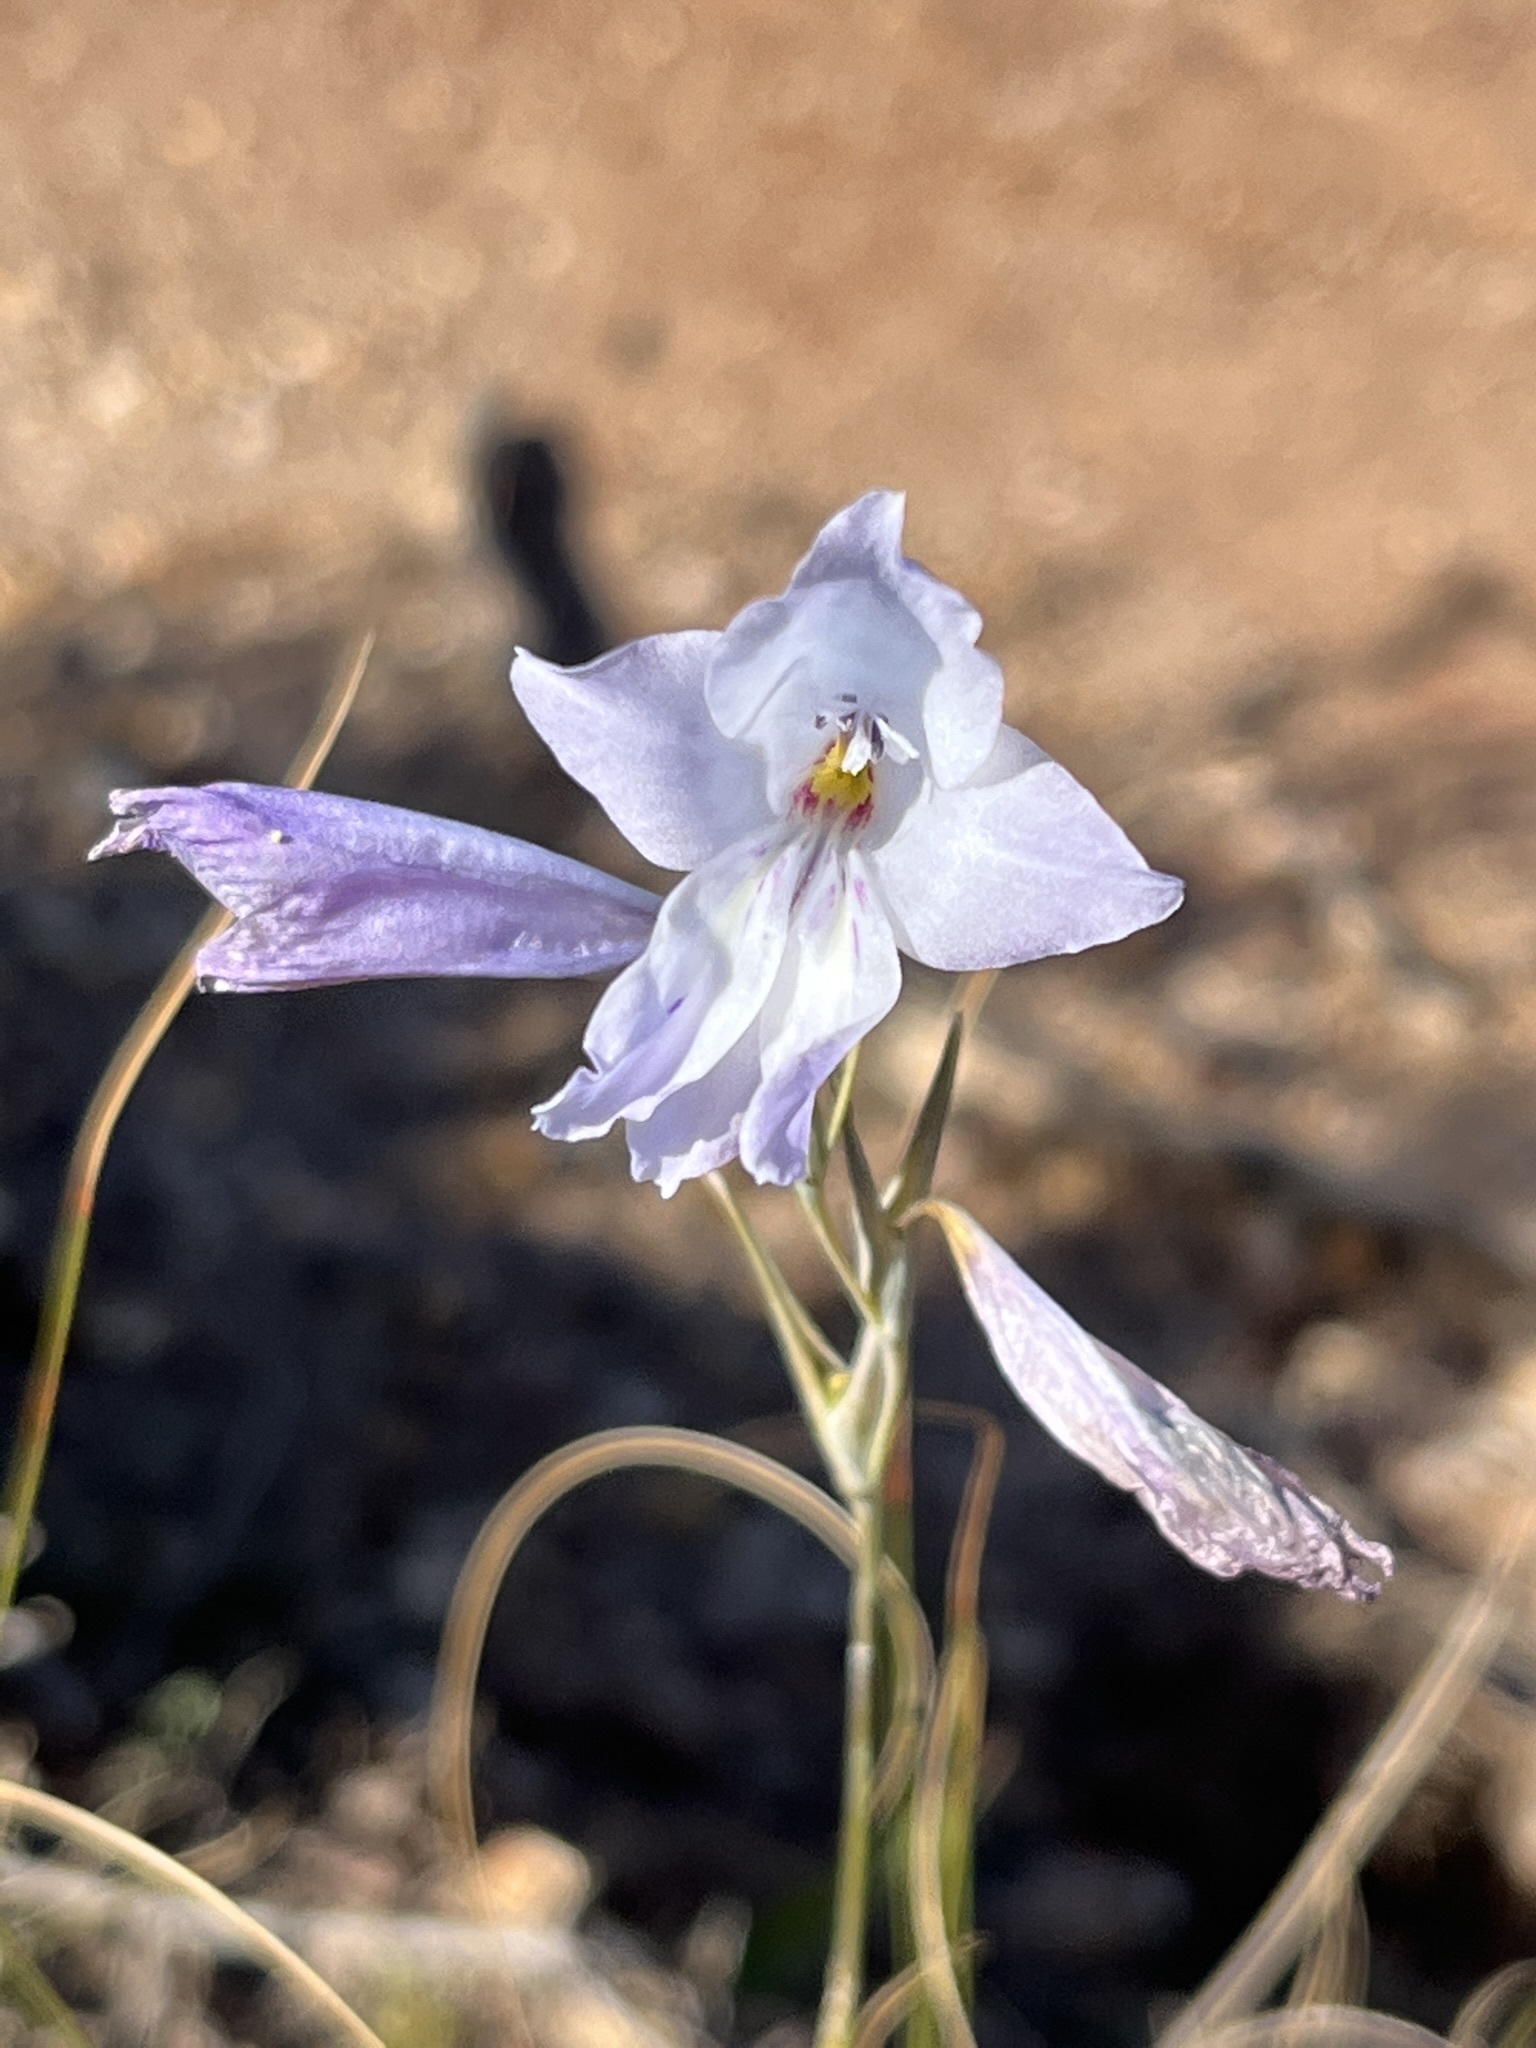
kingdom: Plantae
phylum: Tracheophyta
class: Liliopsida
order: Asparagales
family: Iridaceae
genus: Gladiolus
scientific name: Gladiolus vaginatus
